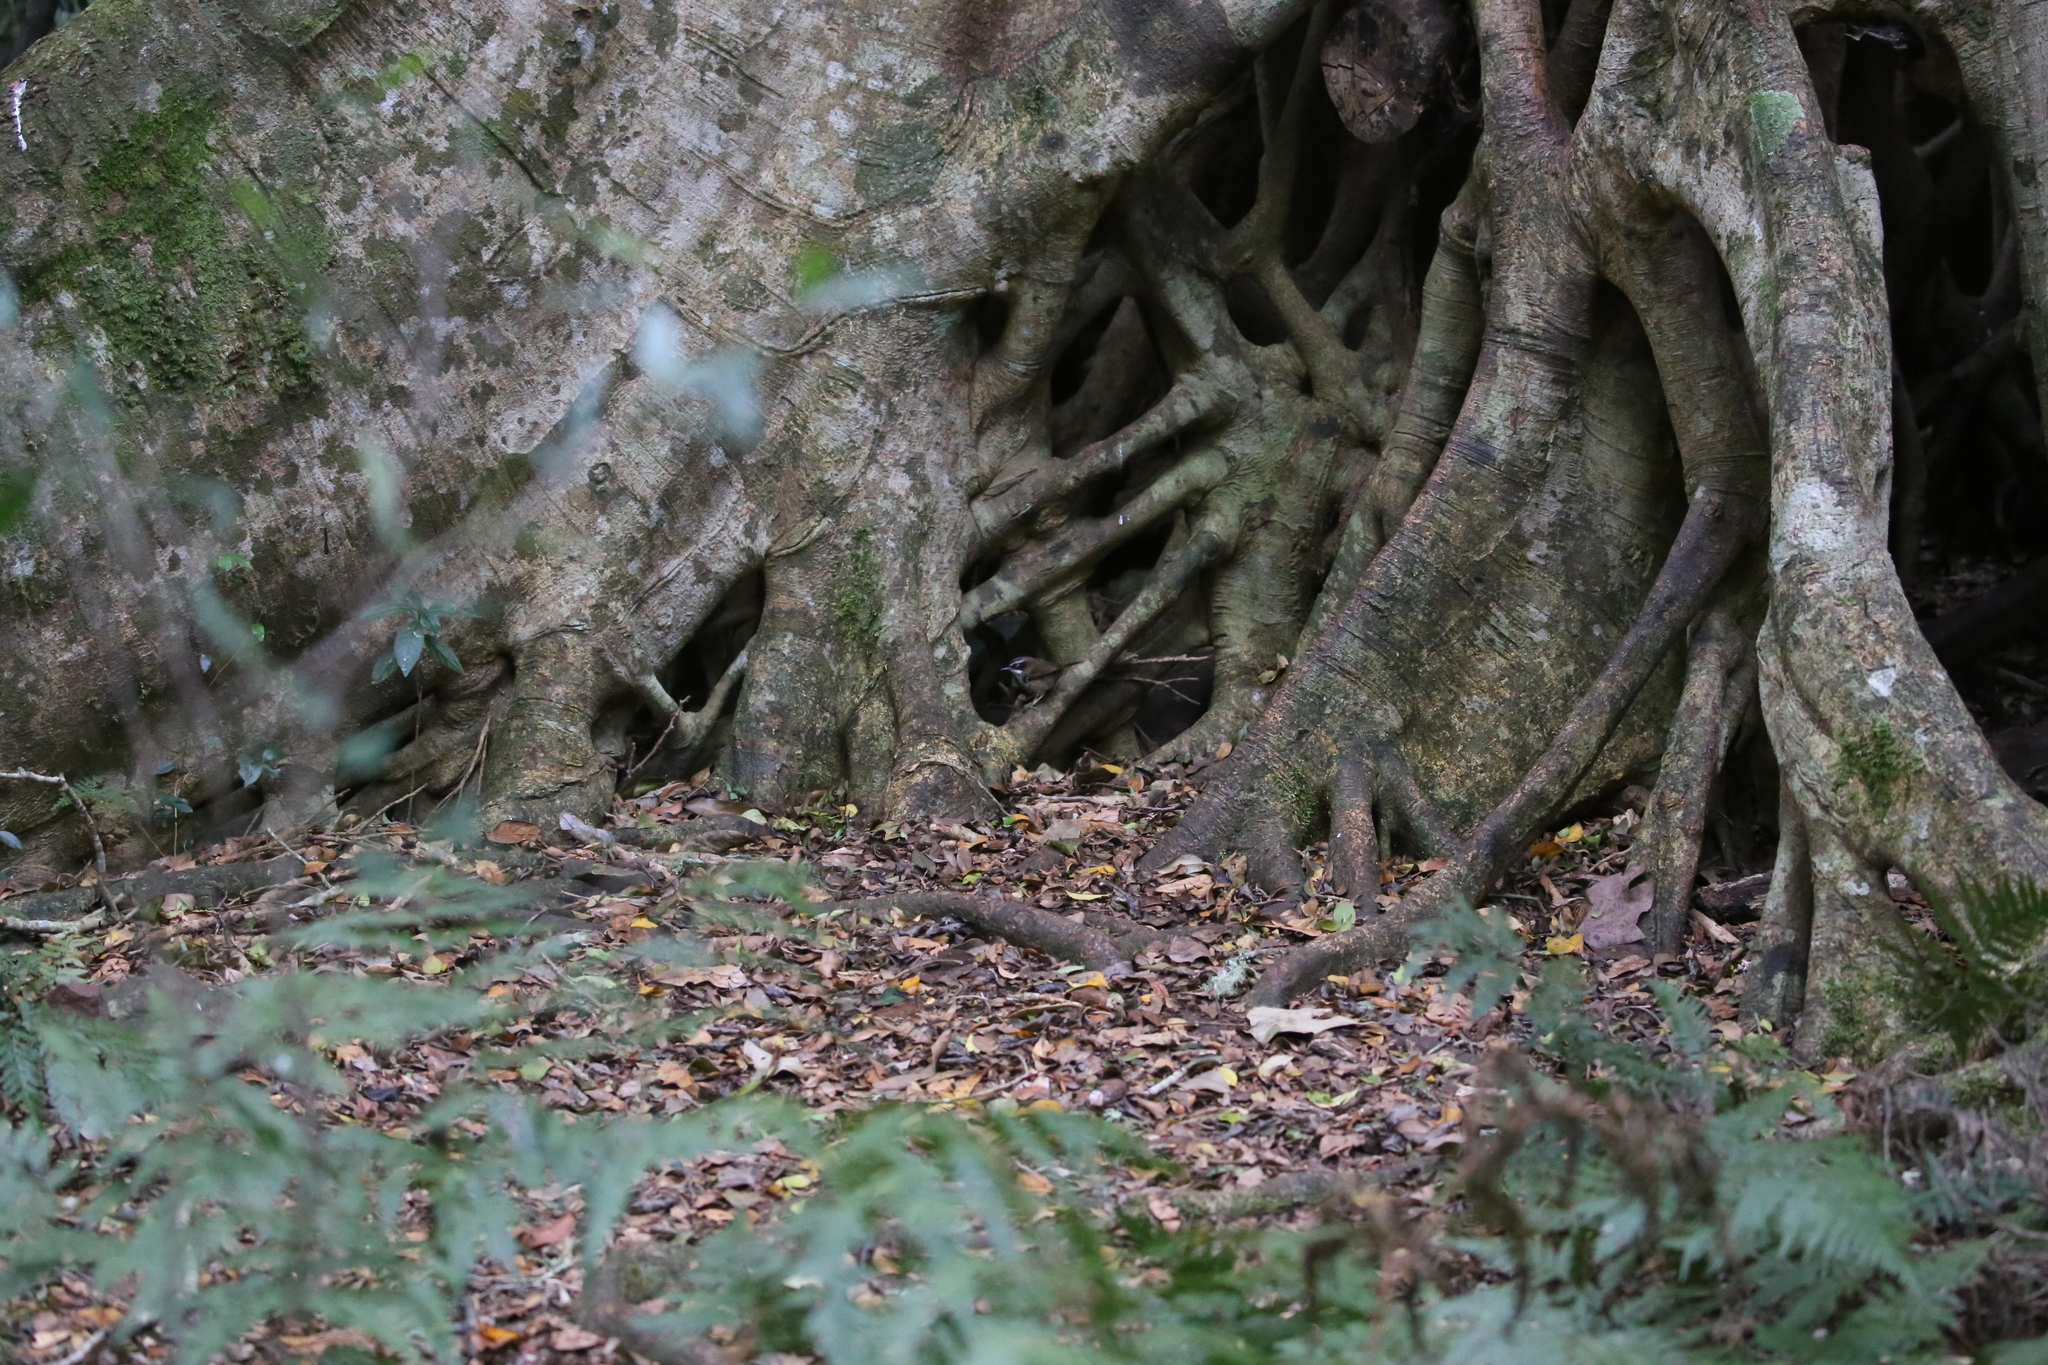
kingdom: Animalia
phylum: Chordata
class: Aves
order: Passeriformes
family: Acanthizidae
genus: Sericornis
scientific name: Sericornis frontalis
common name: White-browed scrubwren
